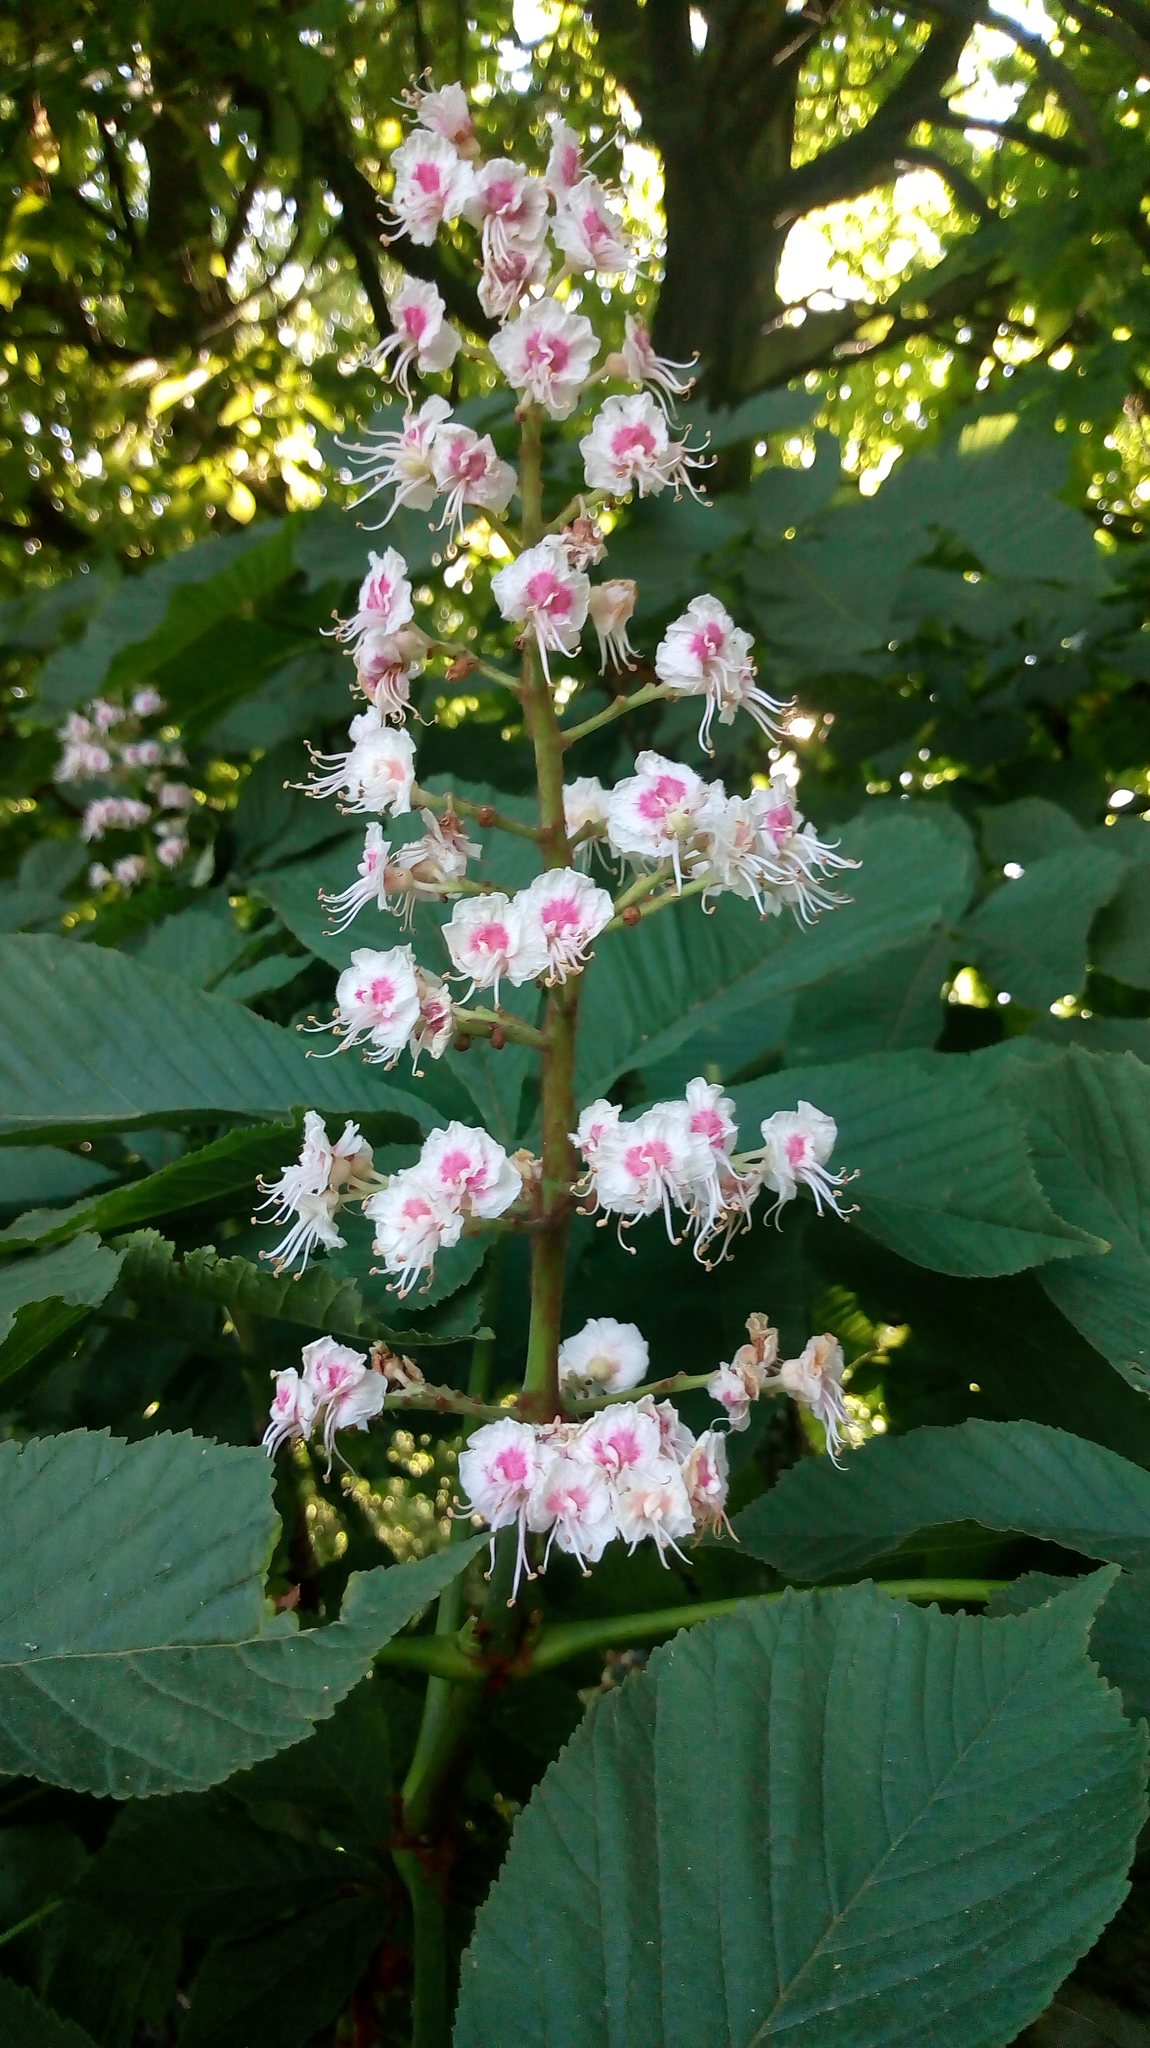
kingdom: Plantae
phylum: Tracheophyta
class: Magnoliopsida
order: Sapindales
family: Sapindaceae
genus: Aesculus
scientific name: Aesculus hippocastanum
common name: Horse-chestnut
